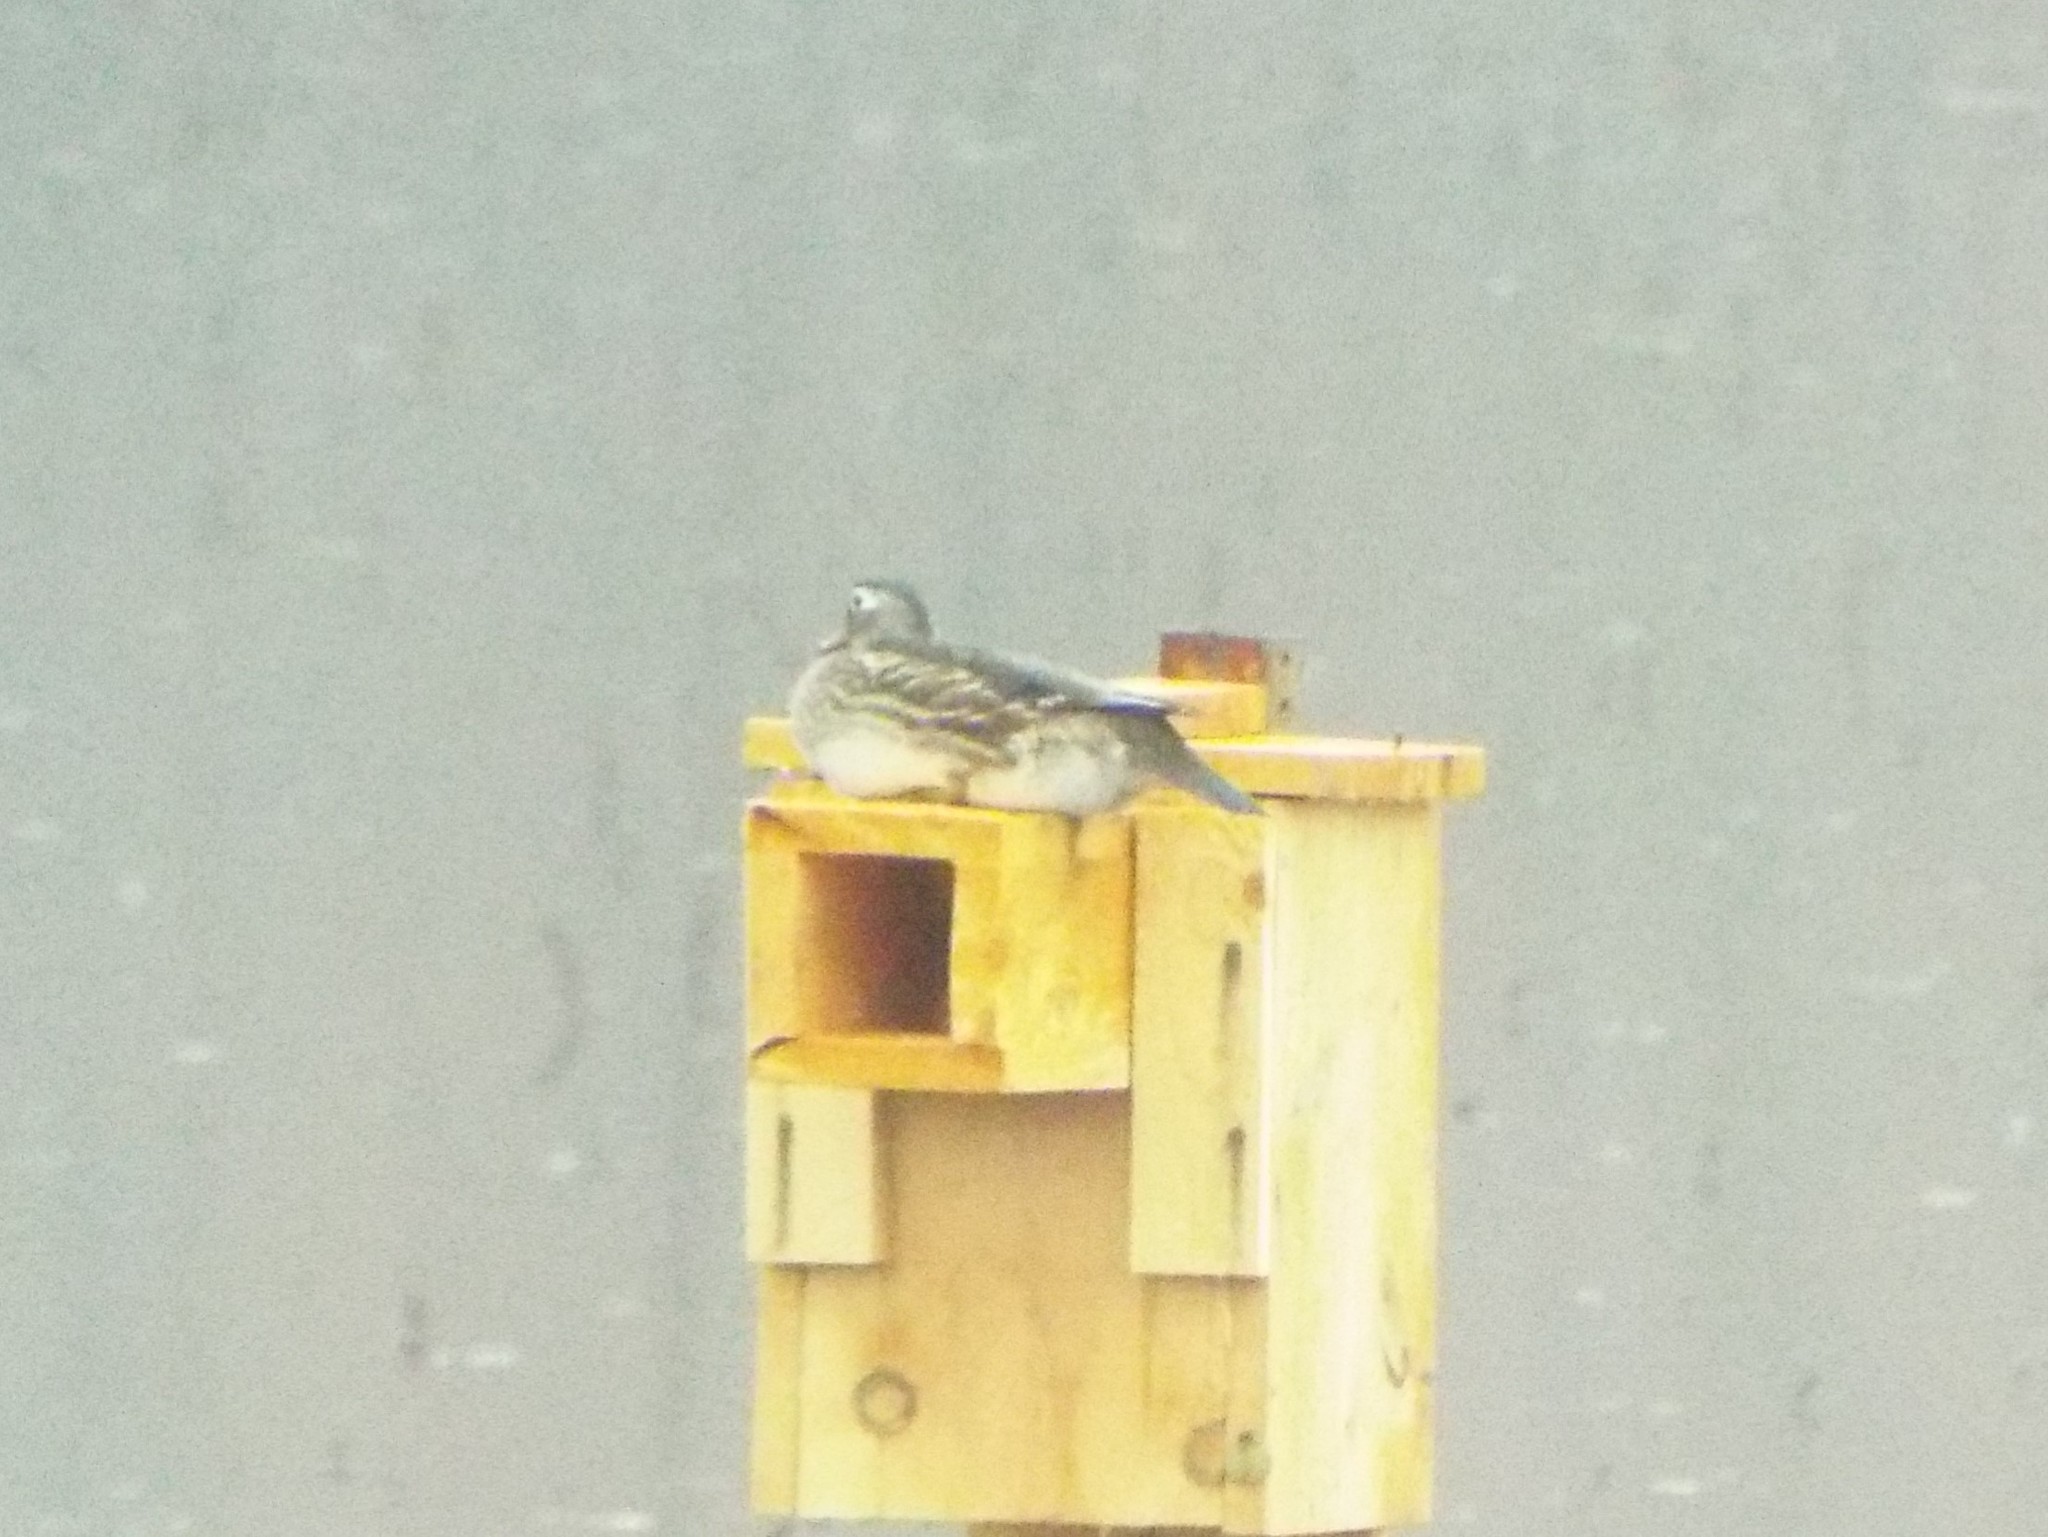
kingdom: Animalia
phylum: Chordata
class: Aves
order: Anseriformes
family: Anatidae
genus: Aix
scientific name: Aix sponsa
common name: Wood duck
